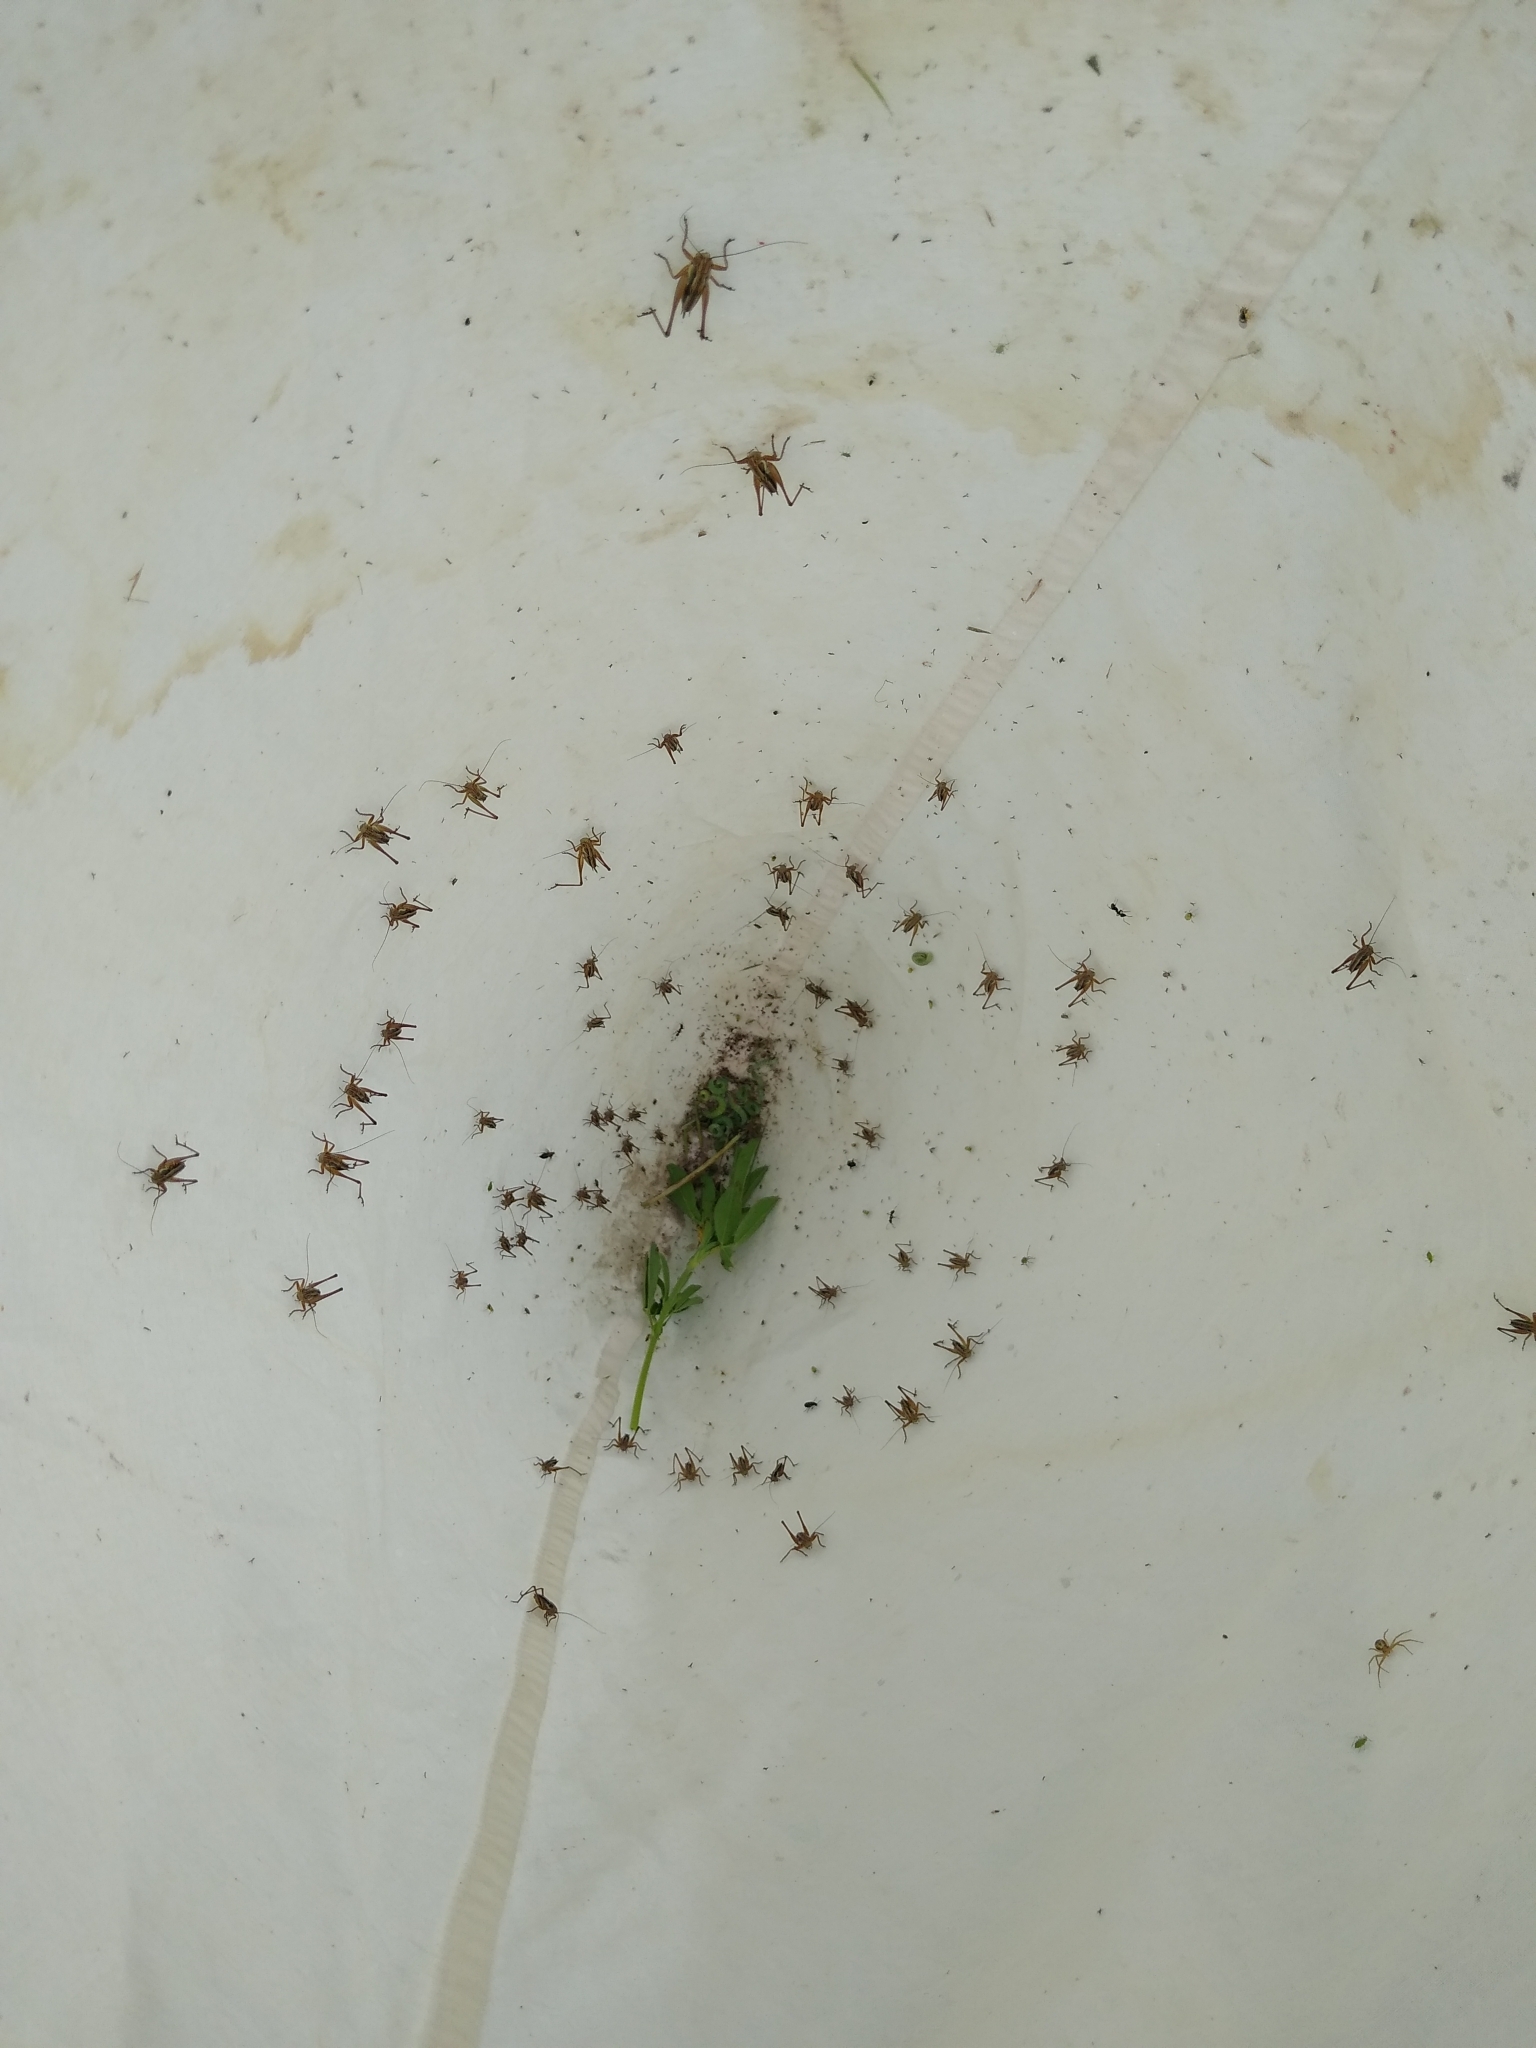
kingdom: Animalia
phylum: Arthropoda
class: Insecta
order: Orthoptera
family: Tettigoniidae
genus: Roeseliana
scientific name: Roeseliana roeselii
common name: Roesel's bush cricket
